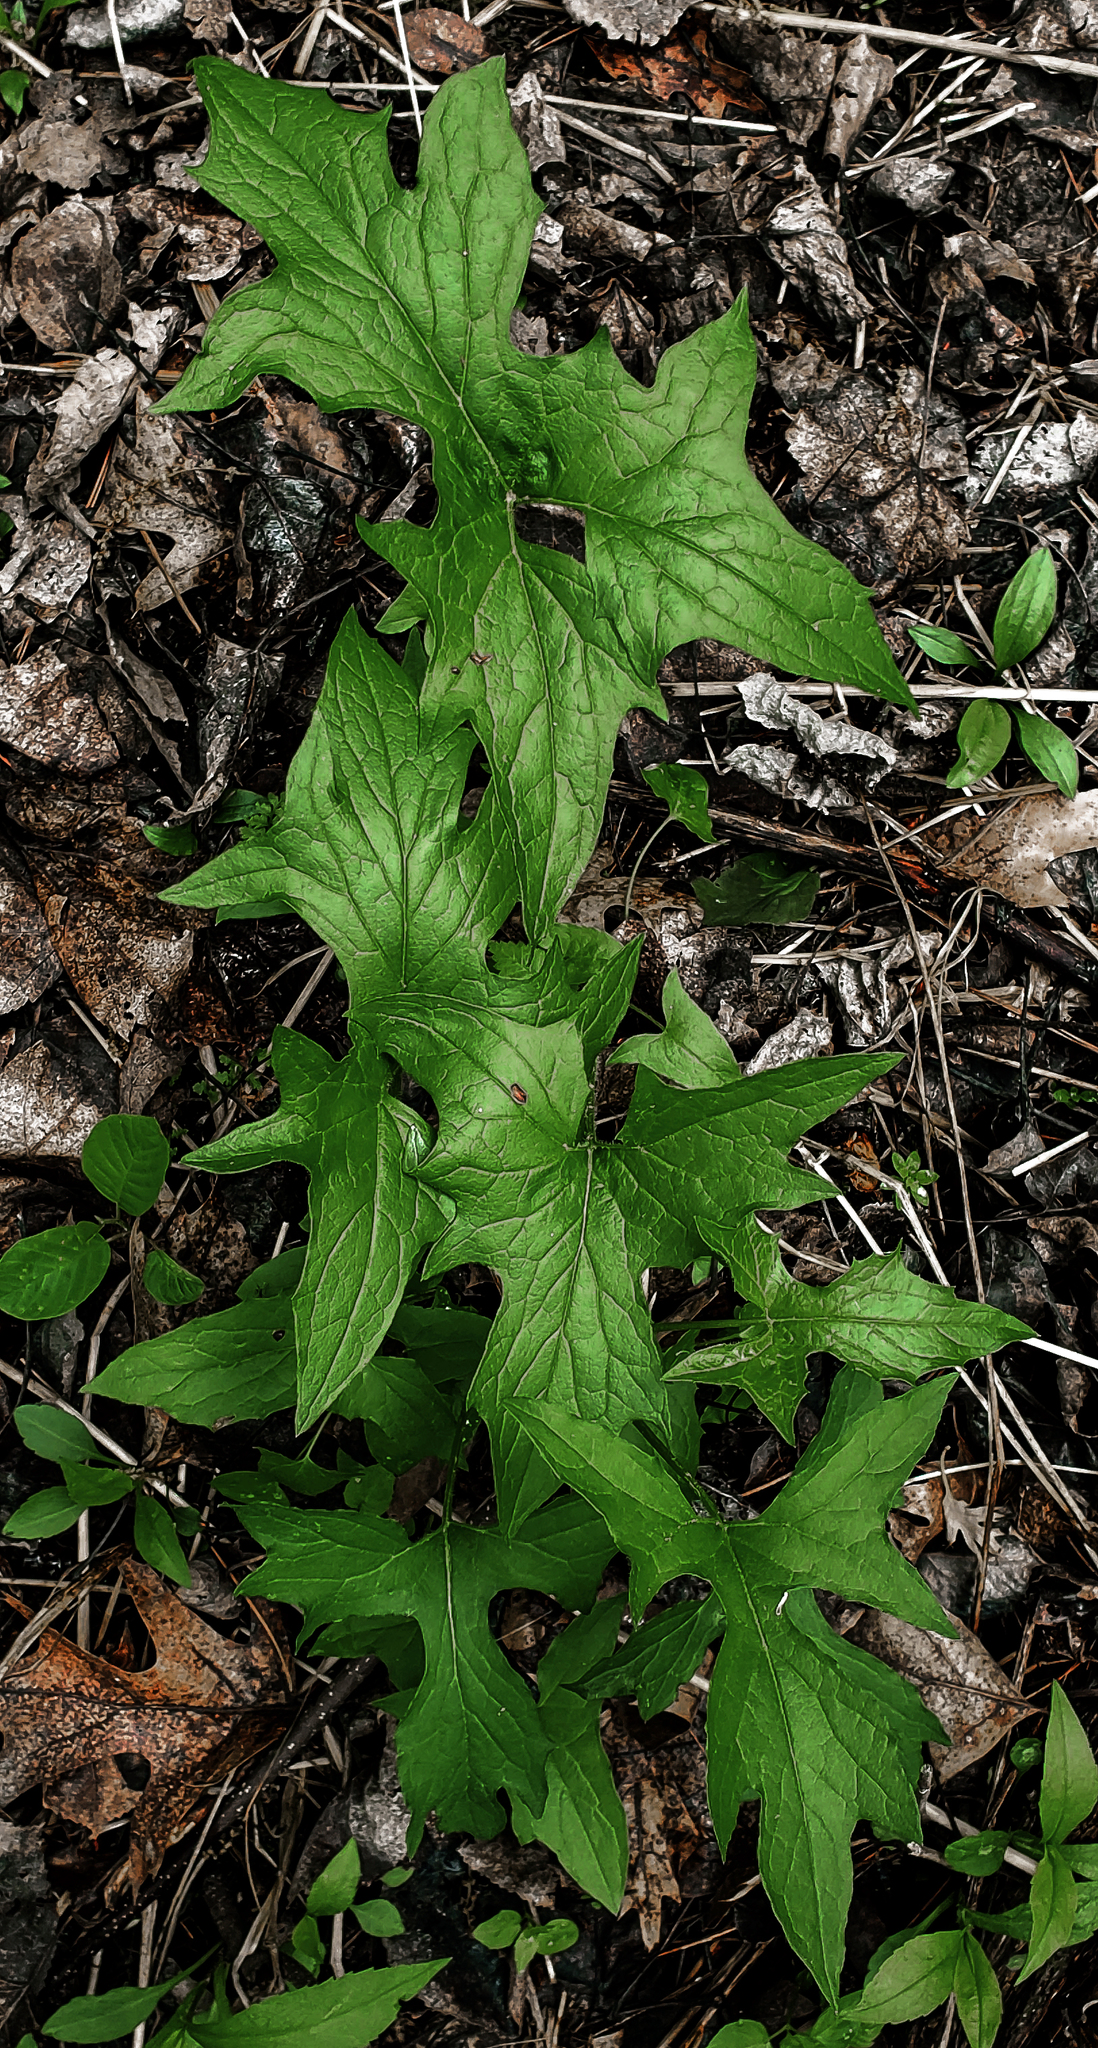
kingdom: Plantae
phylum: Tracheophyta
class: Magnoliopsida
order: Asterales
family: Asteraceae
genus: Nabalus
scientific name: Nabalus albus
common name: White rattlesnakeroot
